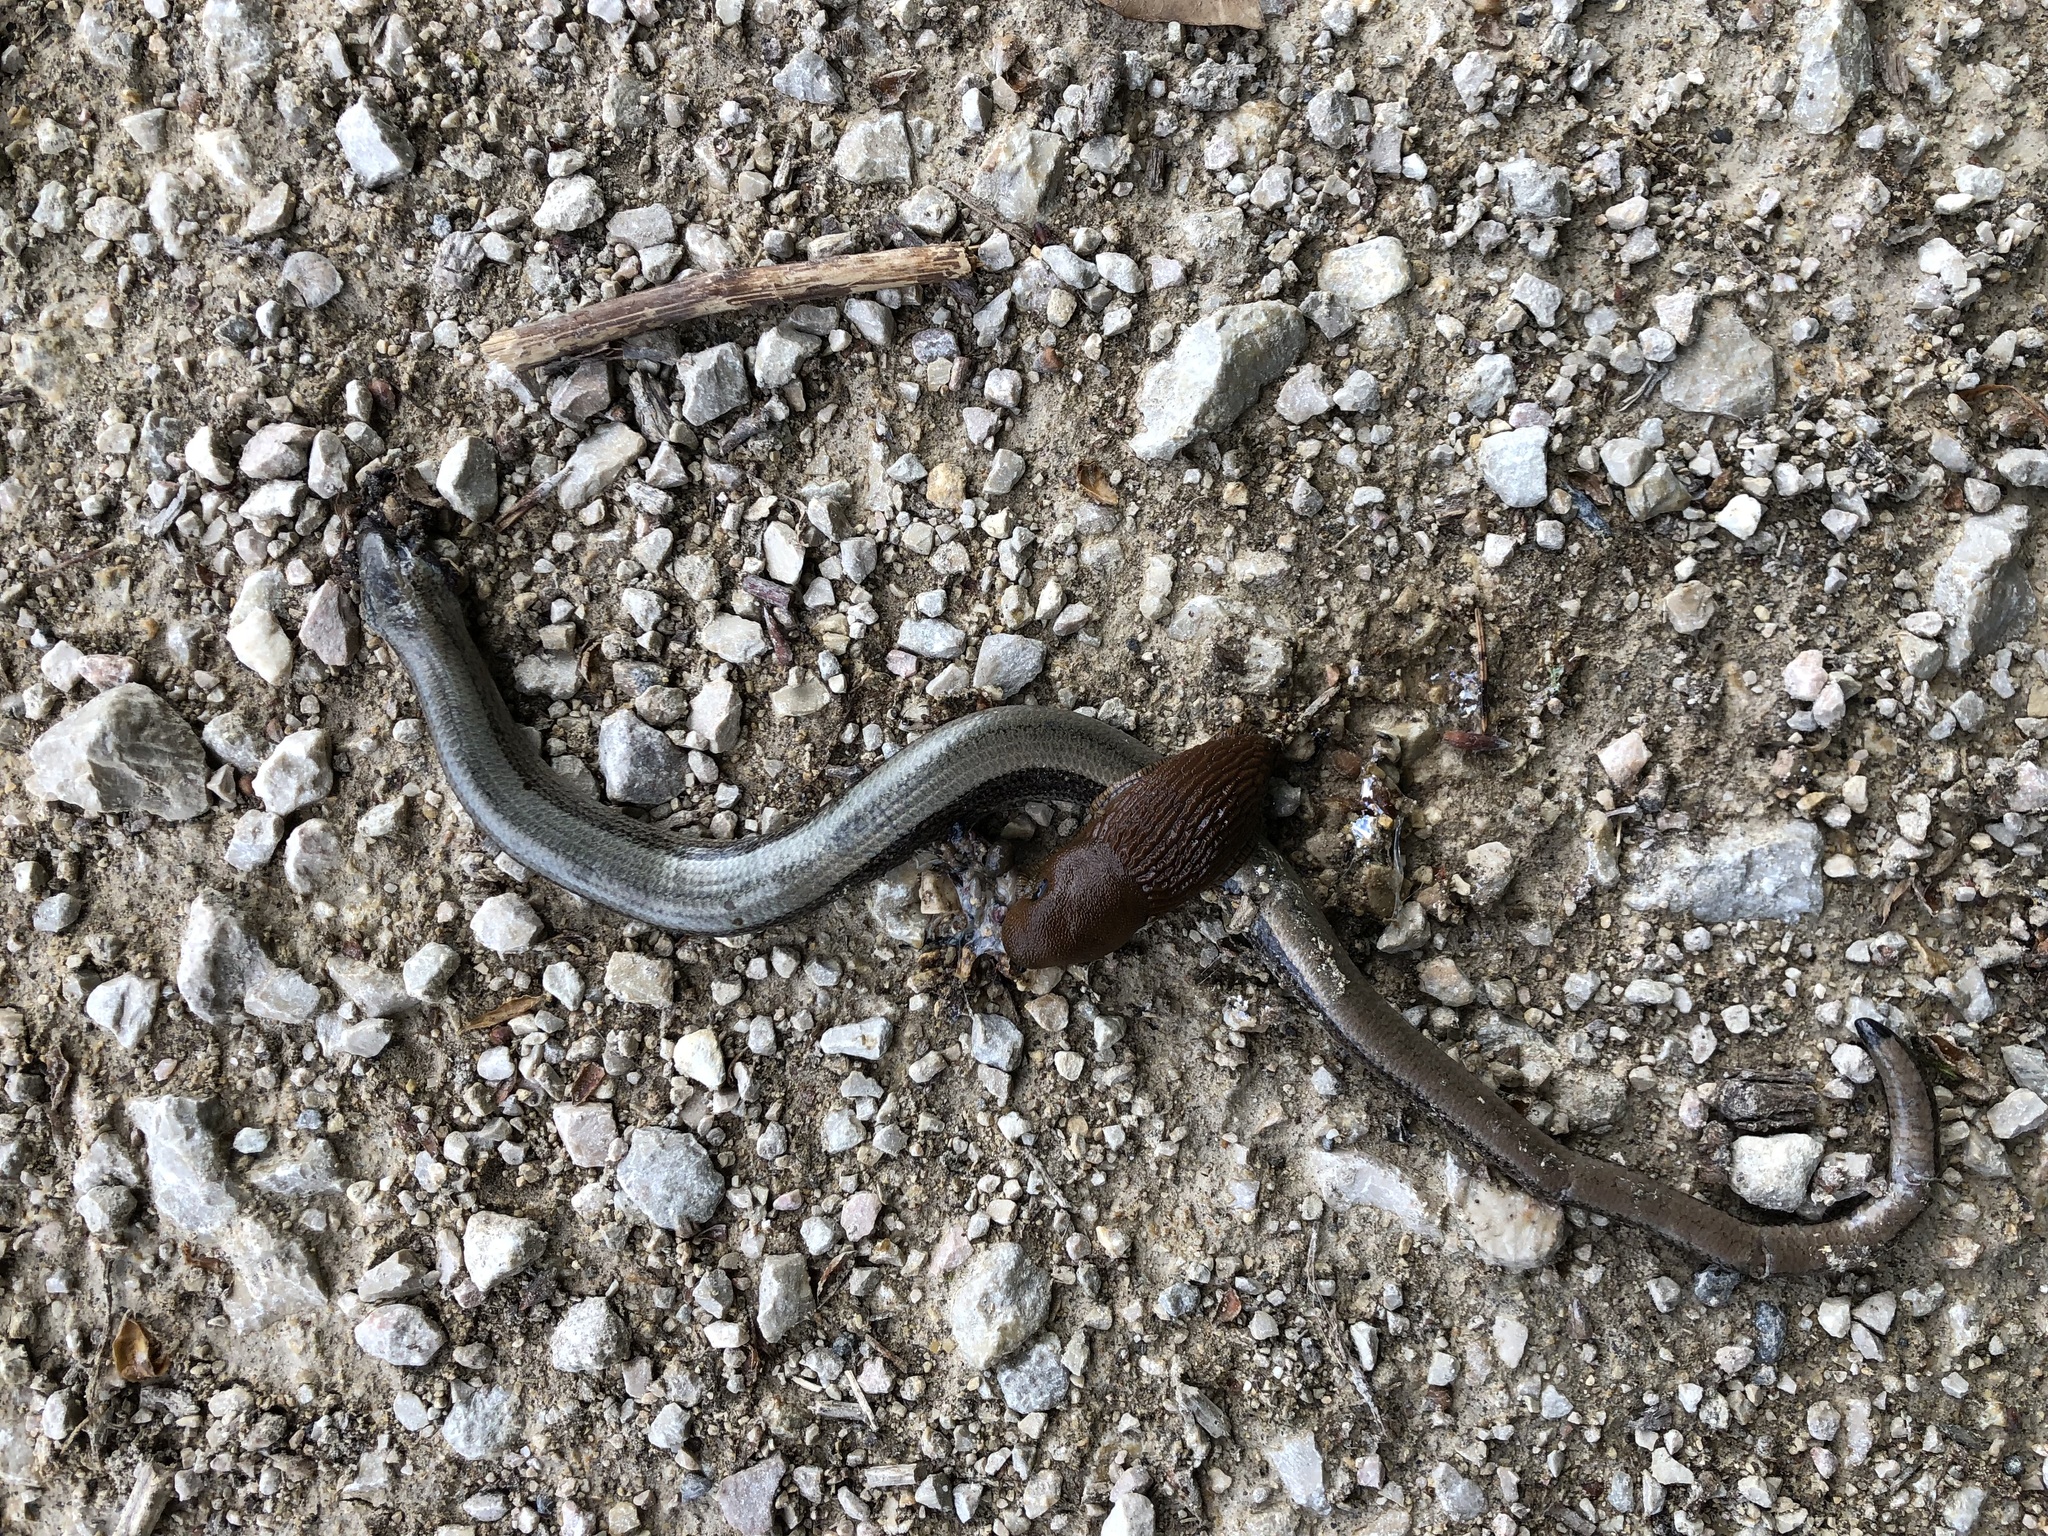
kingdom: Animalia
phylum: Chordata
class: Squamata
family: Anguidae
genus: Anguis
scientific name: Anguis fragilis
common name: Slow worm
